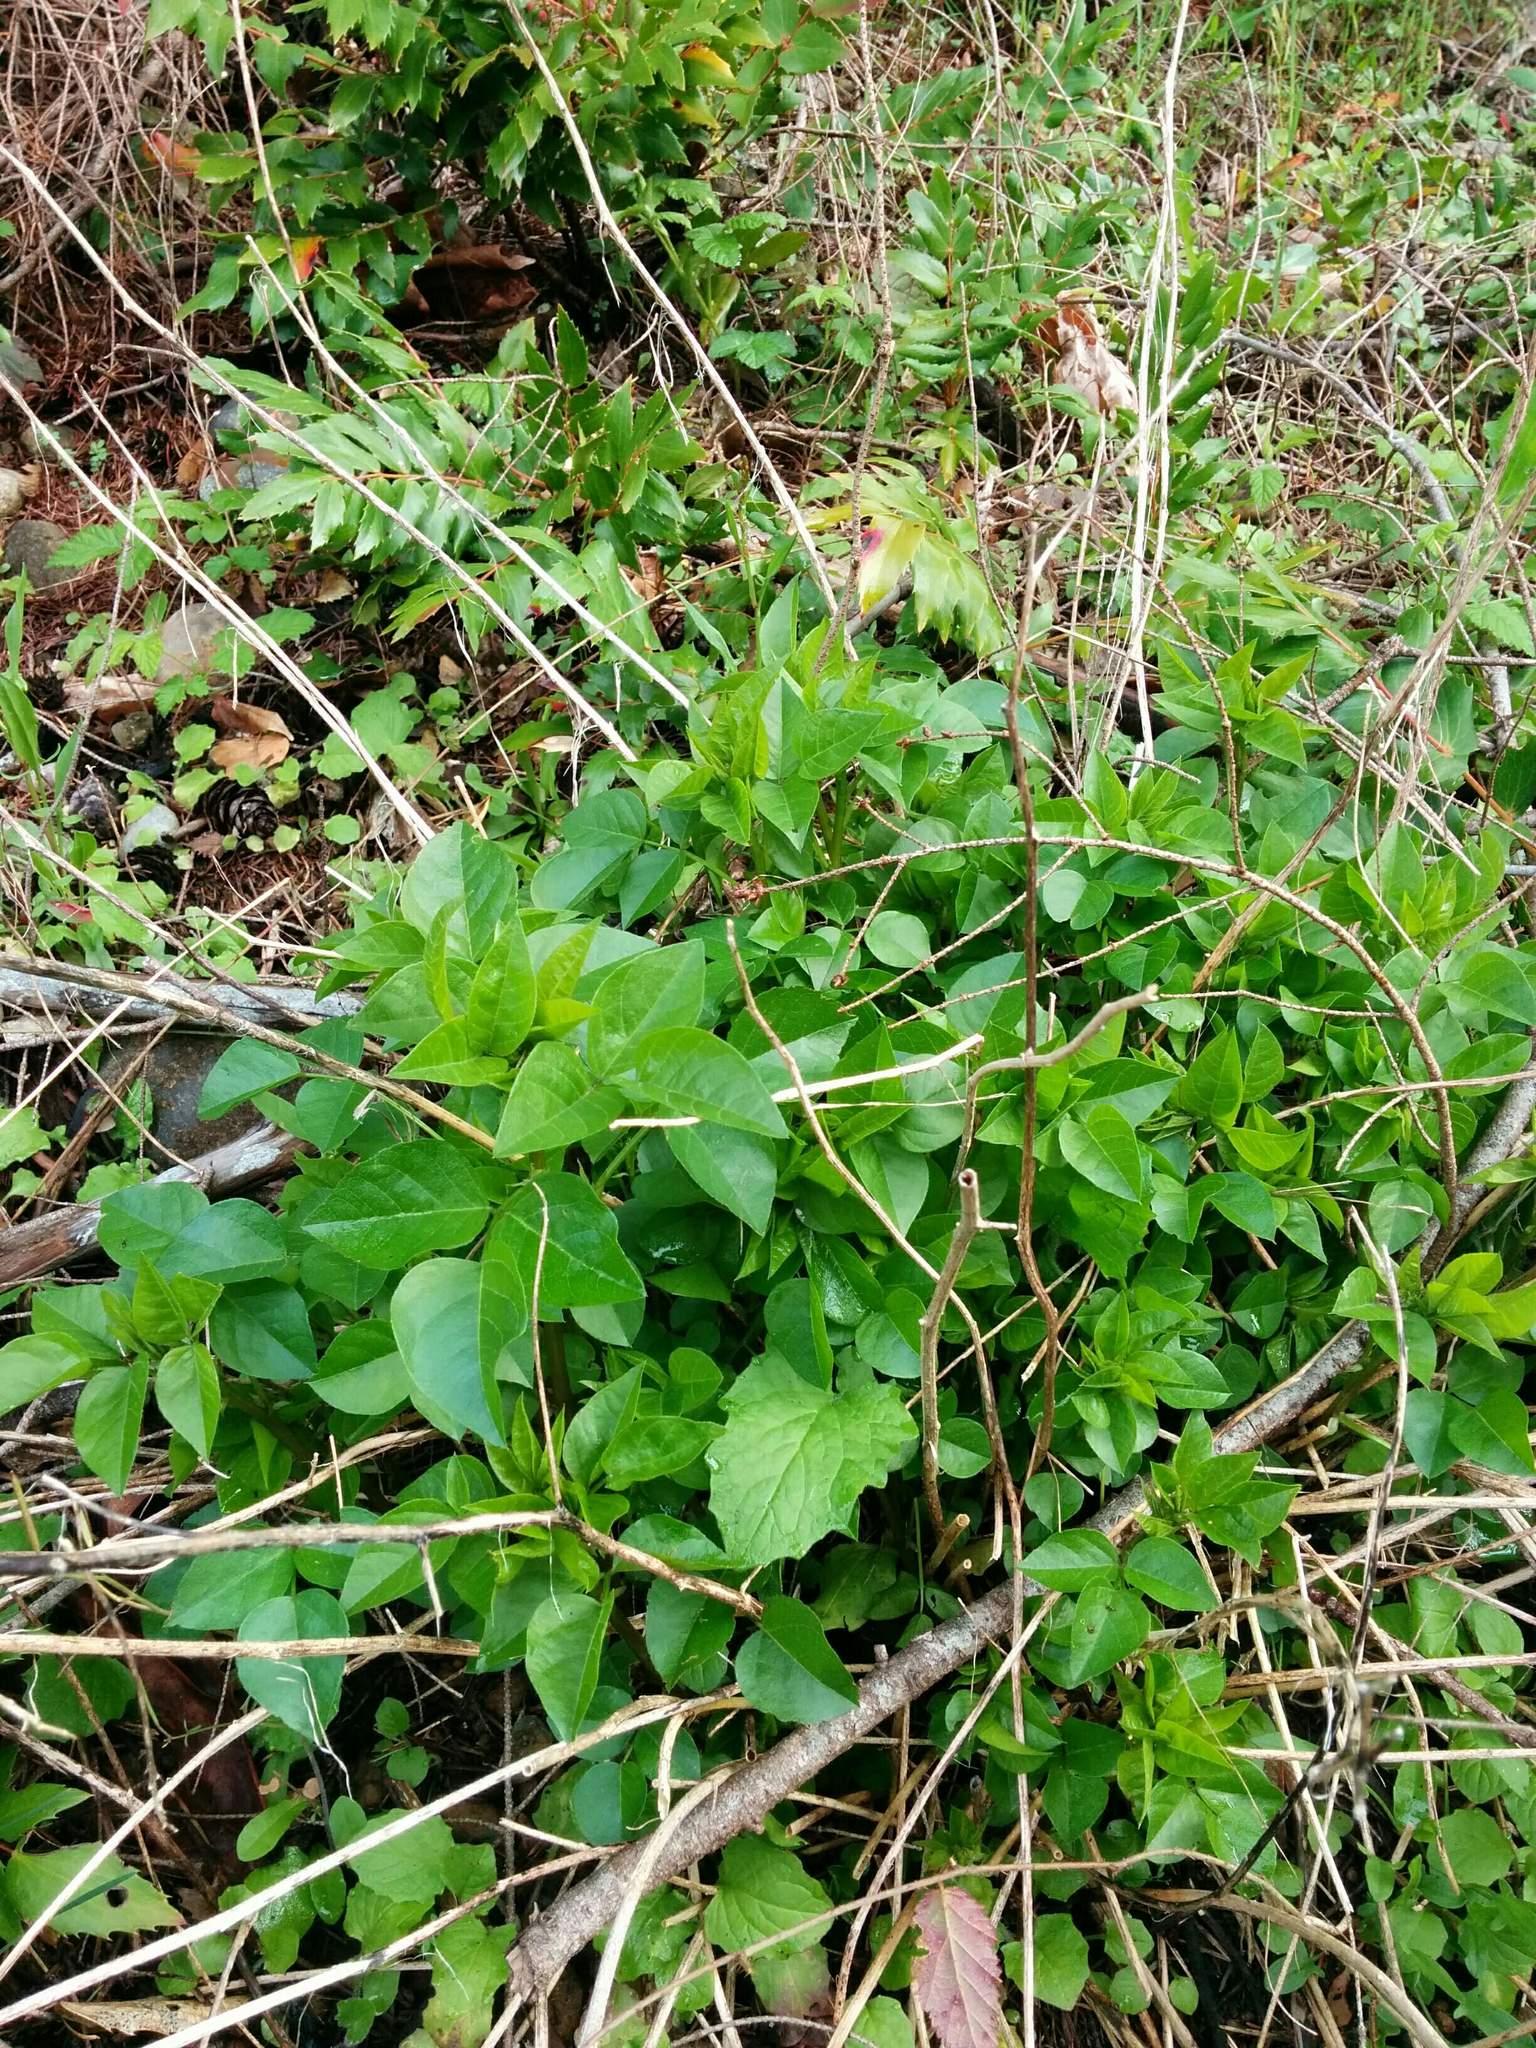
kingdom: Plantae
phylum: Tracheophyta
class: Magnoliopsida
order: Fabales
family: Fabaceae
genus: Rupertia
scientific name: Rupertia physodes
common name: California-tea
